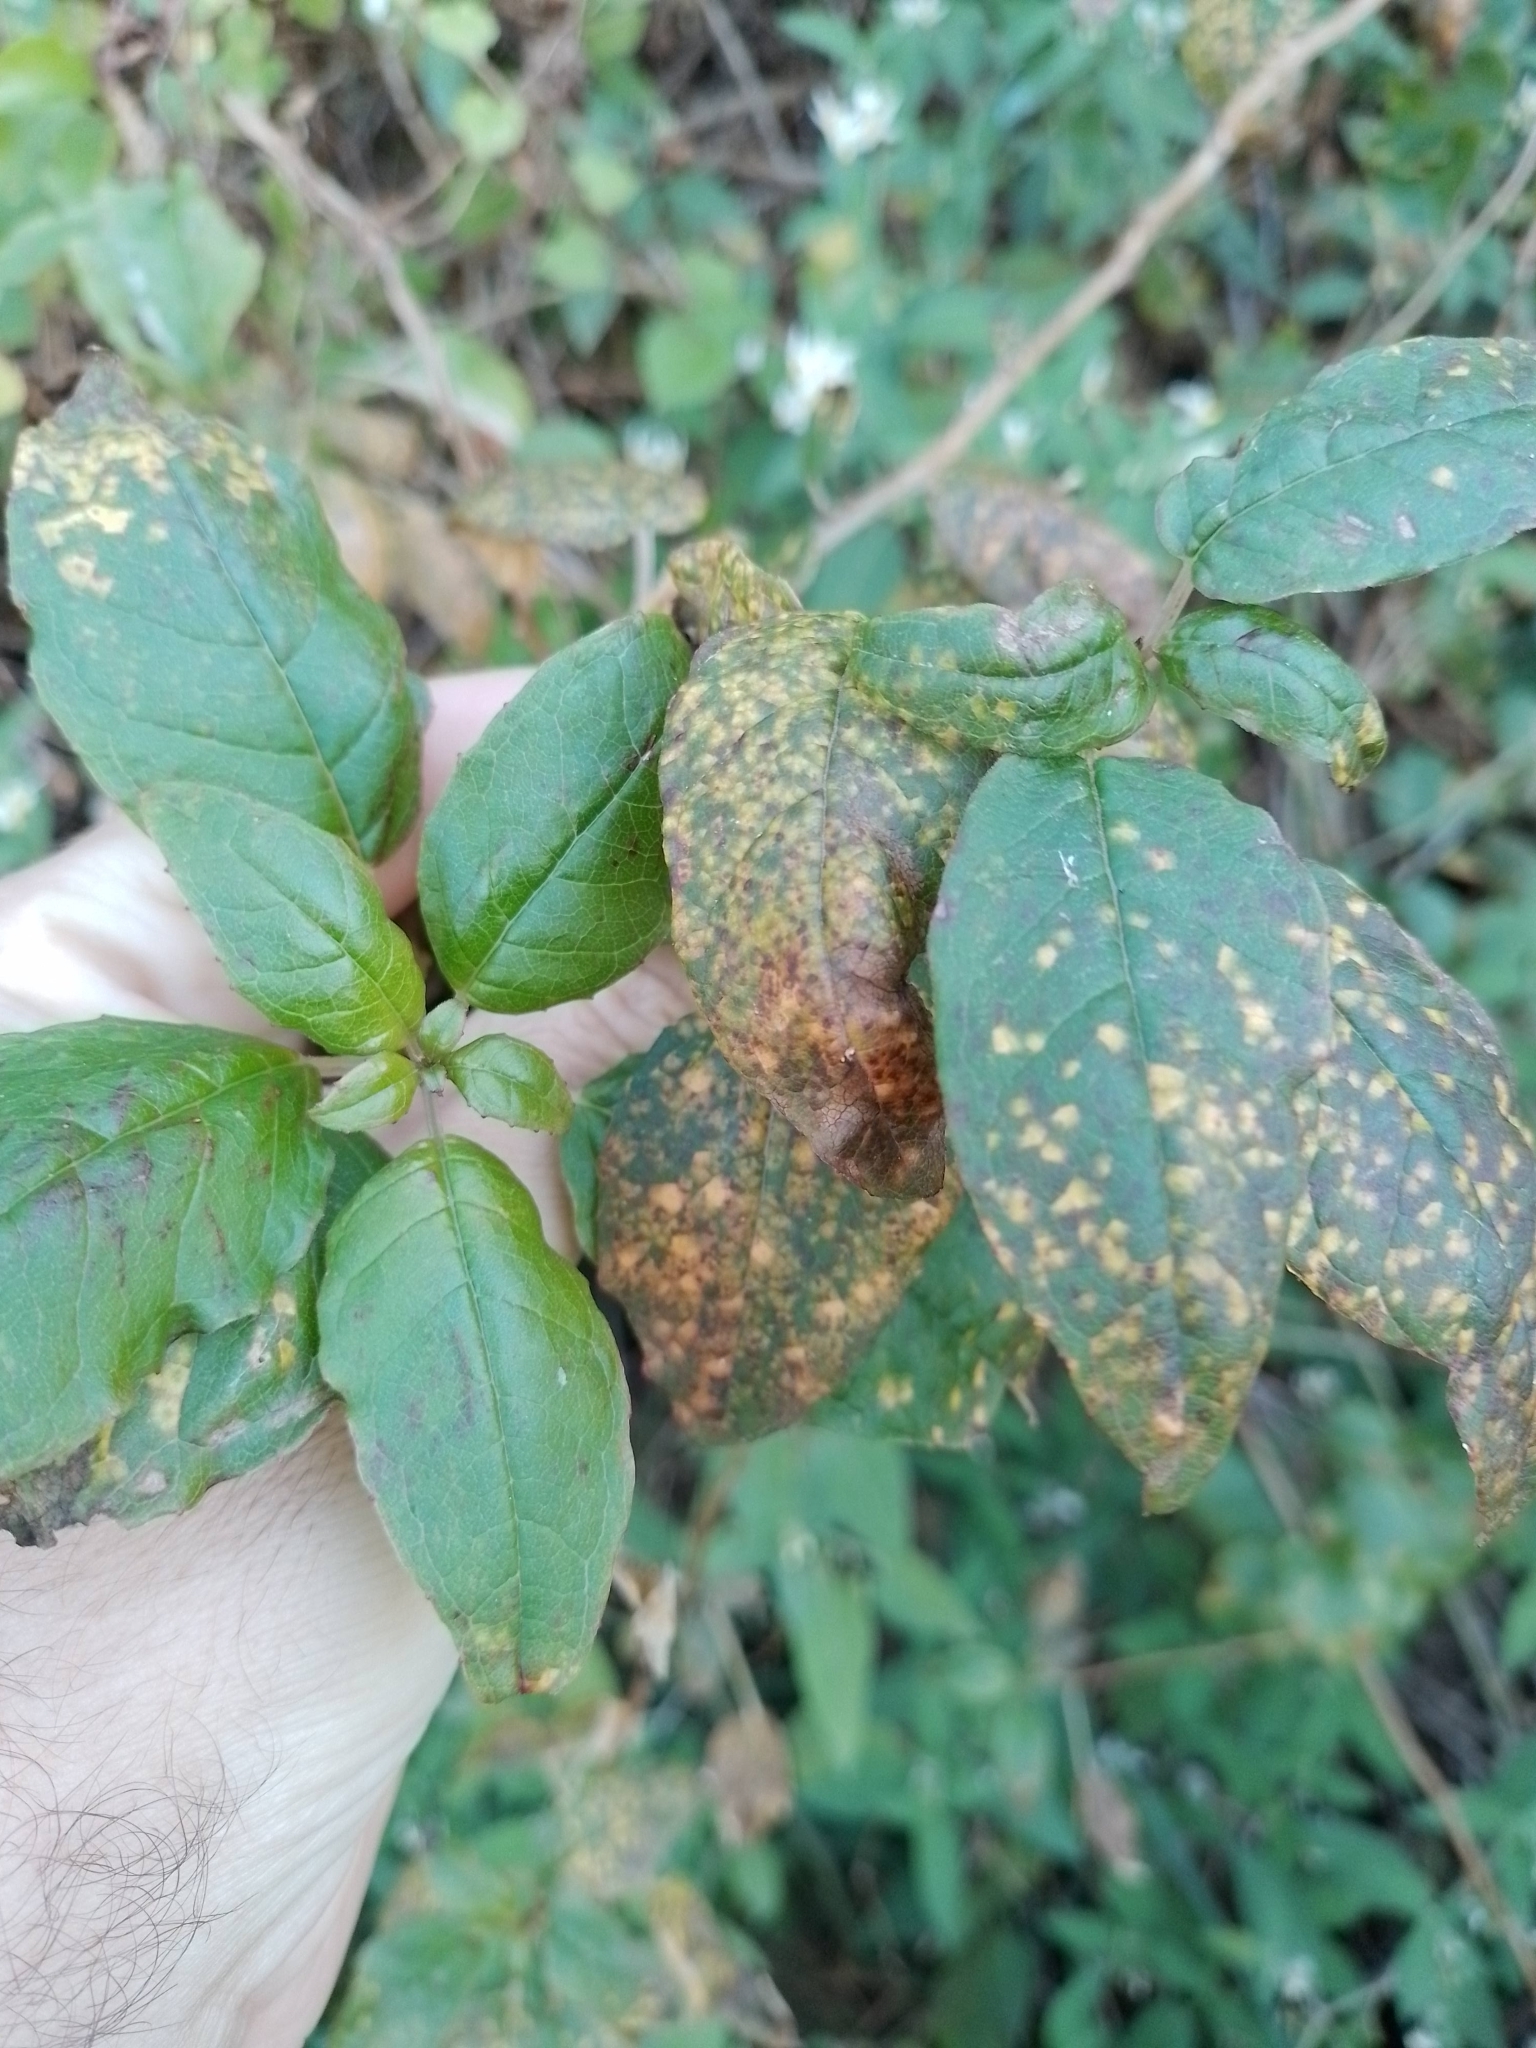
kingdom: Fungi
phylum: Basidiomycota
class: Pucciniomycetes
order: Pucciniales
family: Mikronegeriaceae
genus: Mikronegeria
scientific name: Mikronegeria fuchsiae
